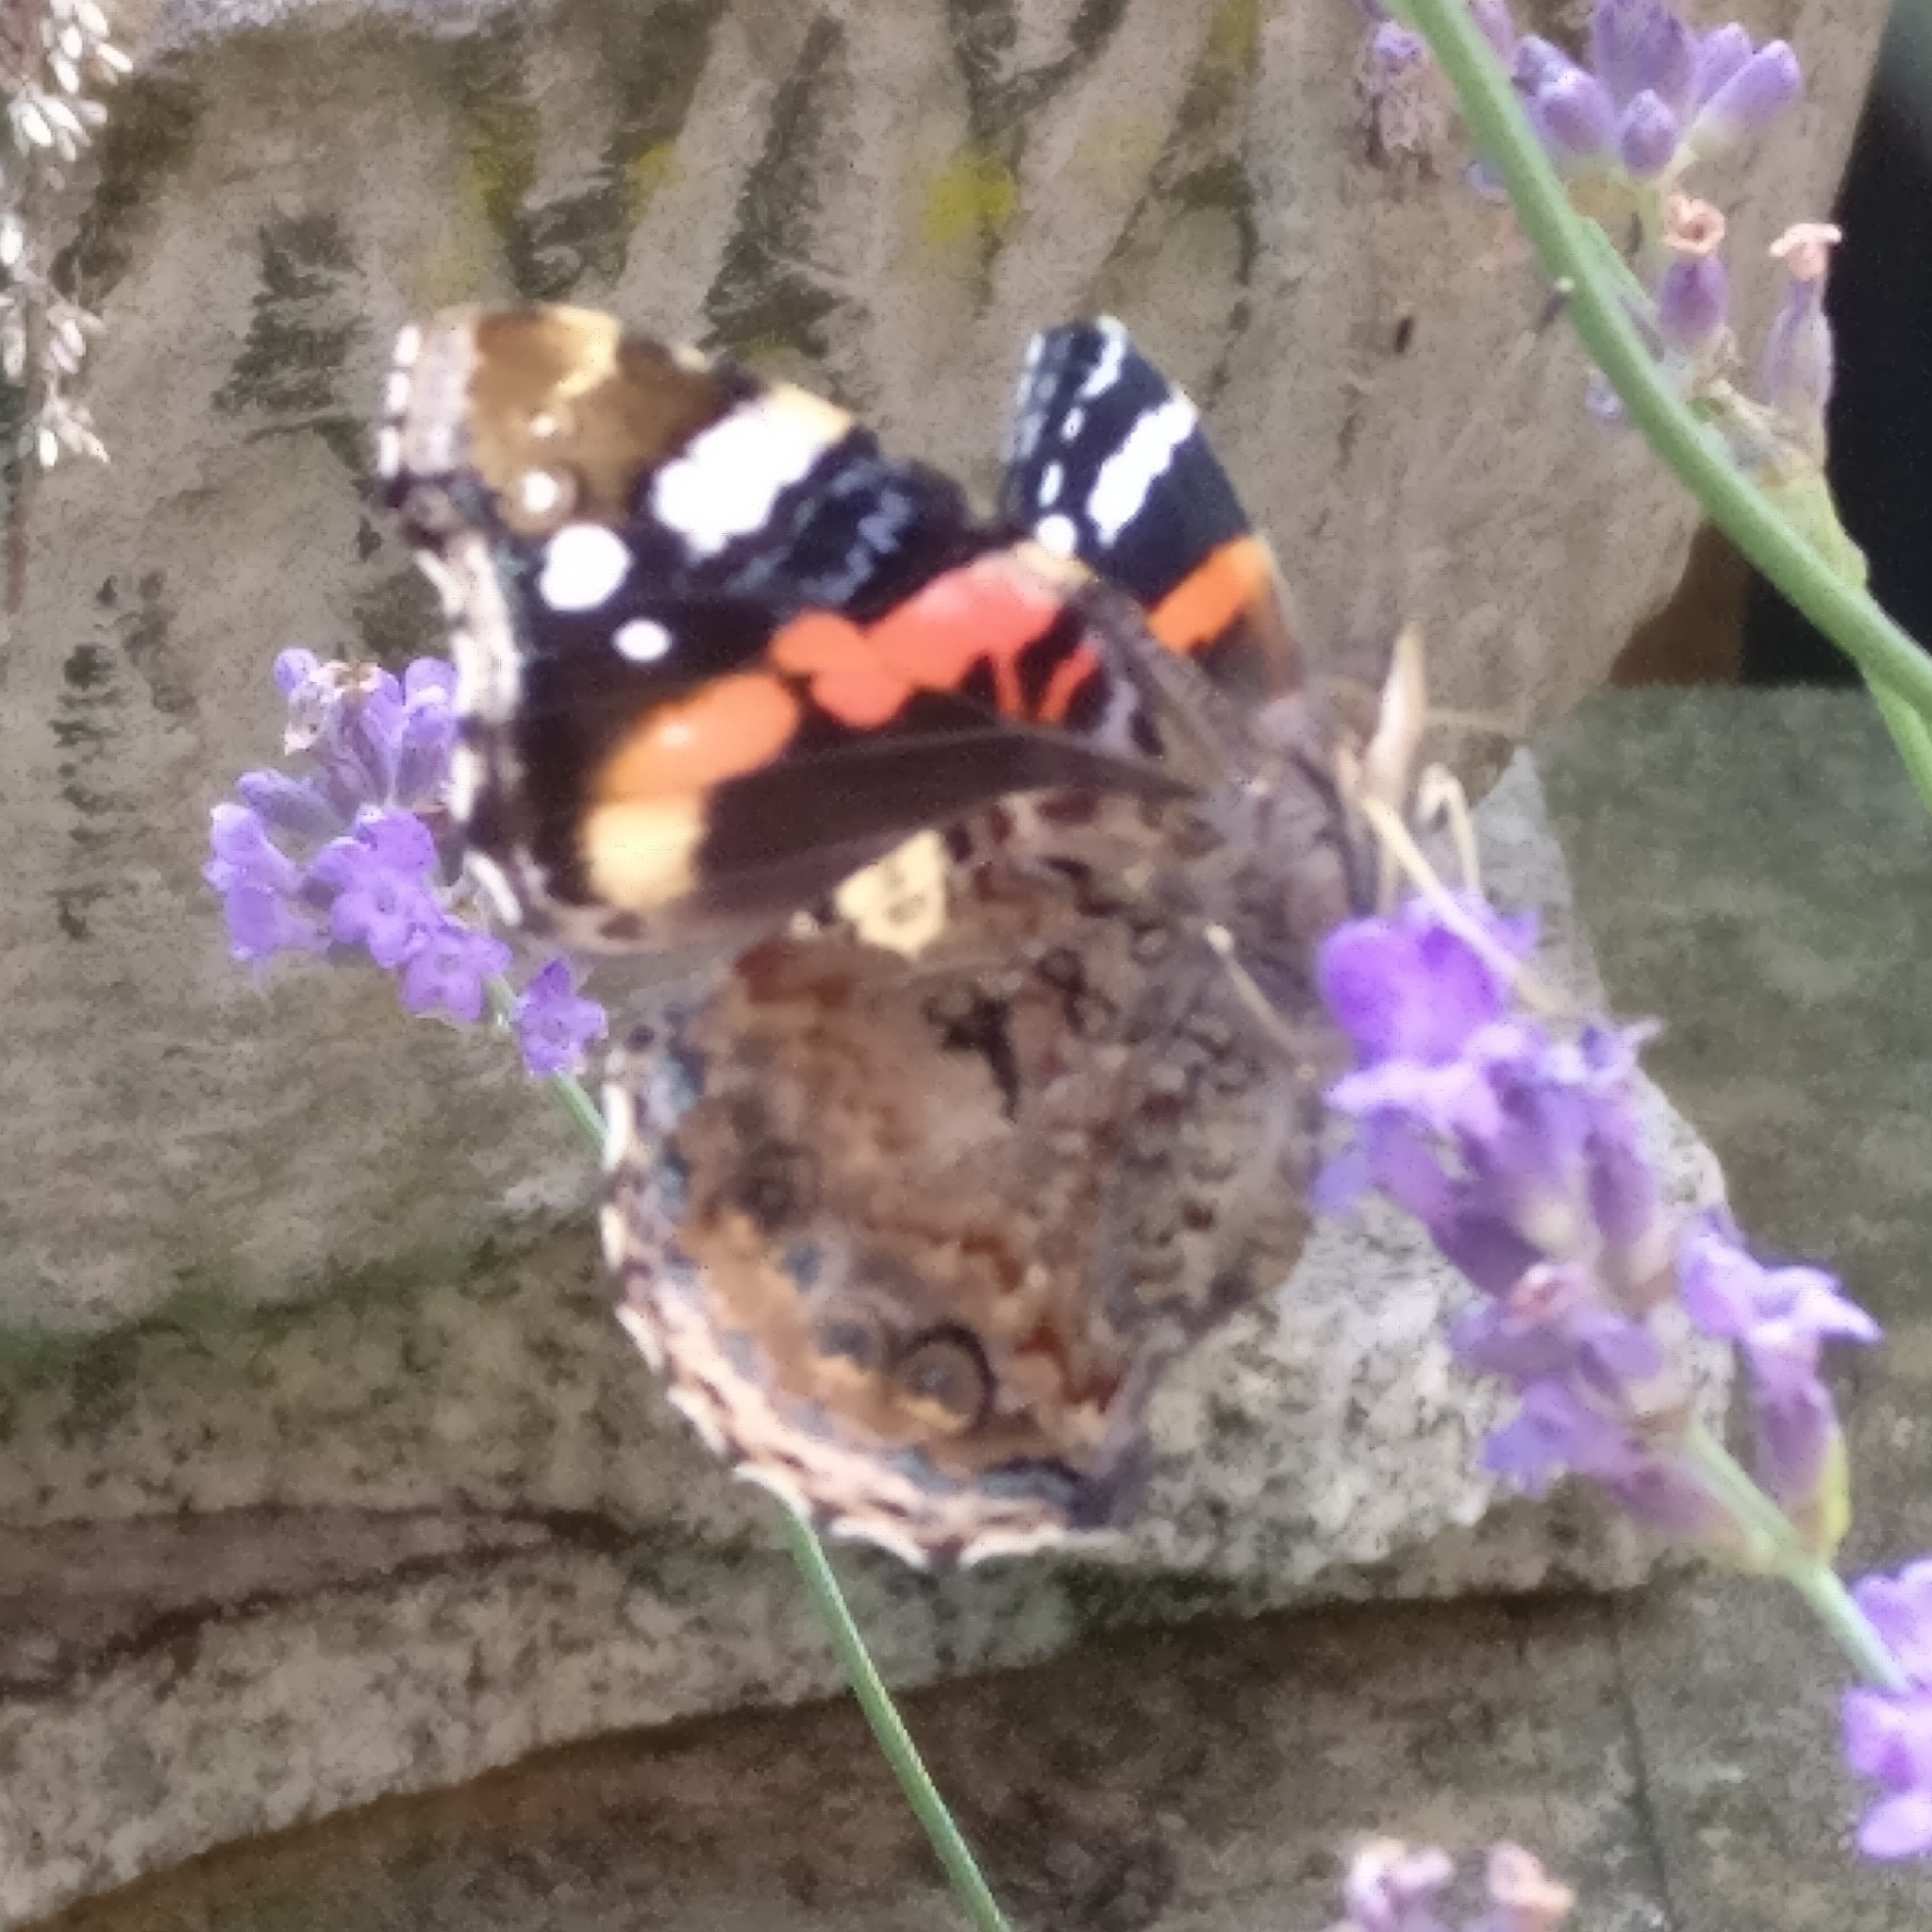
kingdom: Animalia
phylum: Arthropoda
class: Insecta
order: Lepidoptera
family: Nymphalidae
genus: Vanessa
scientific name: Vanessa atalanta
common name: Red admiral
